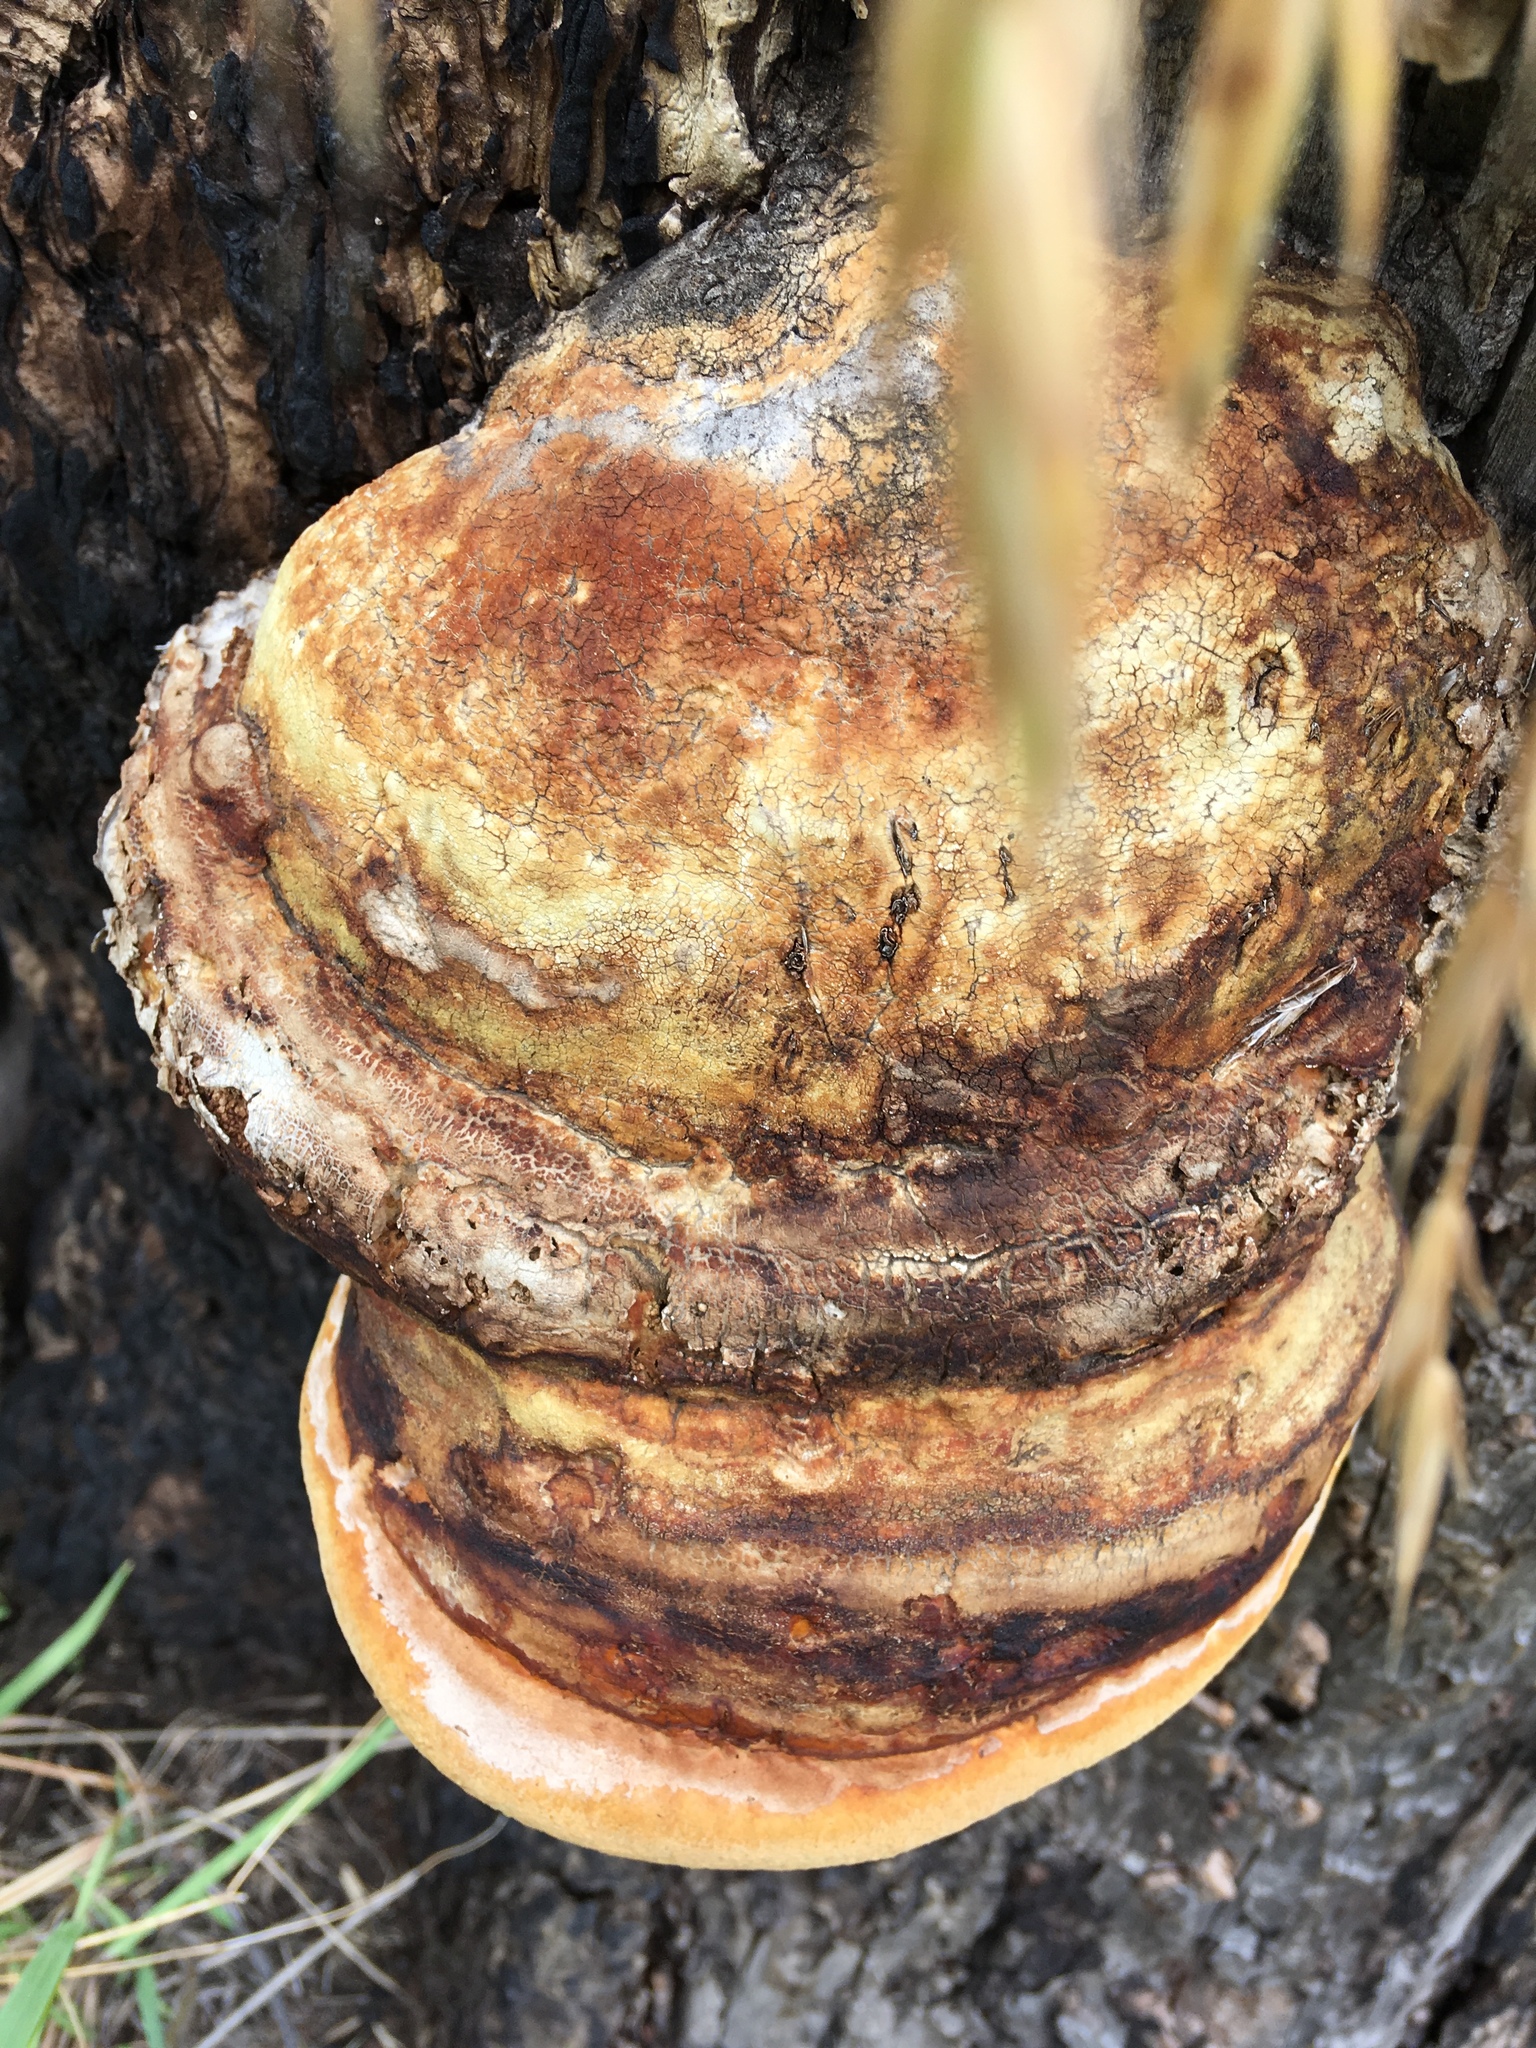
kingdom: Fungi
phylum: Basidiomycota
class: Agaricomycetes
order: Polyporales
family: Fomitopsidaceae
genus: Fomitopsis
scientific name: Fomitopsis schrenkii
